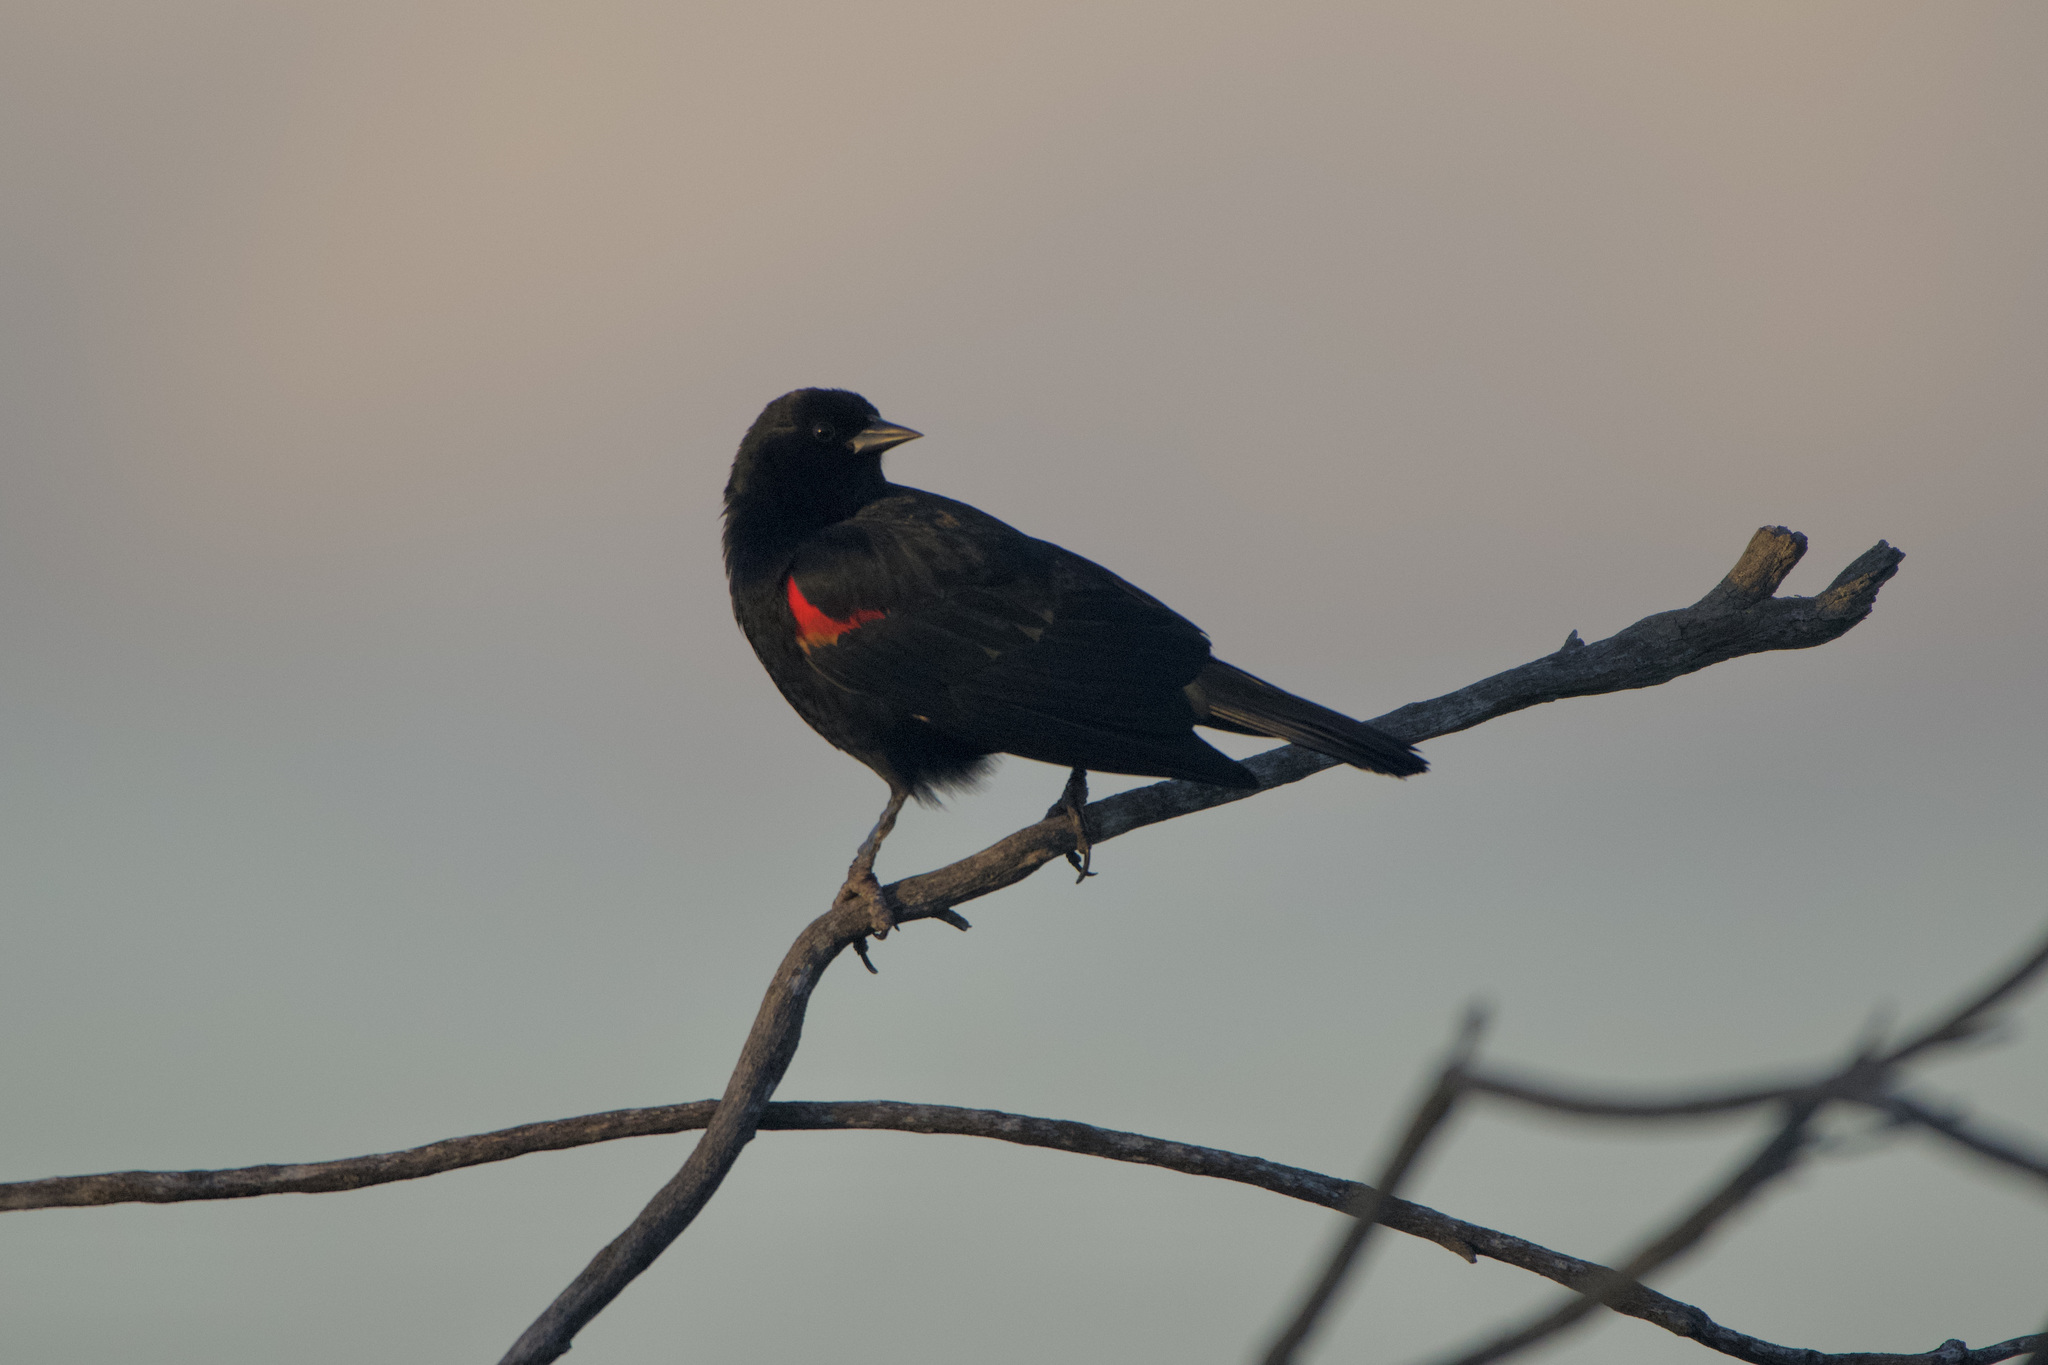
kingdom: Animalia
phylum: Chordata
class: Aves
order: Passeriformes
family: Icteridae
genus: Agelaius
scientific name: Agelaius phoeniceus
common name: Red-winged blackbird
